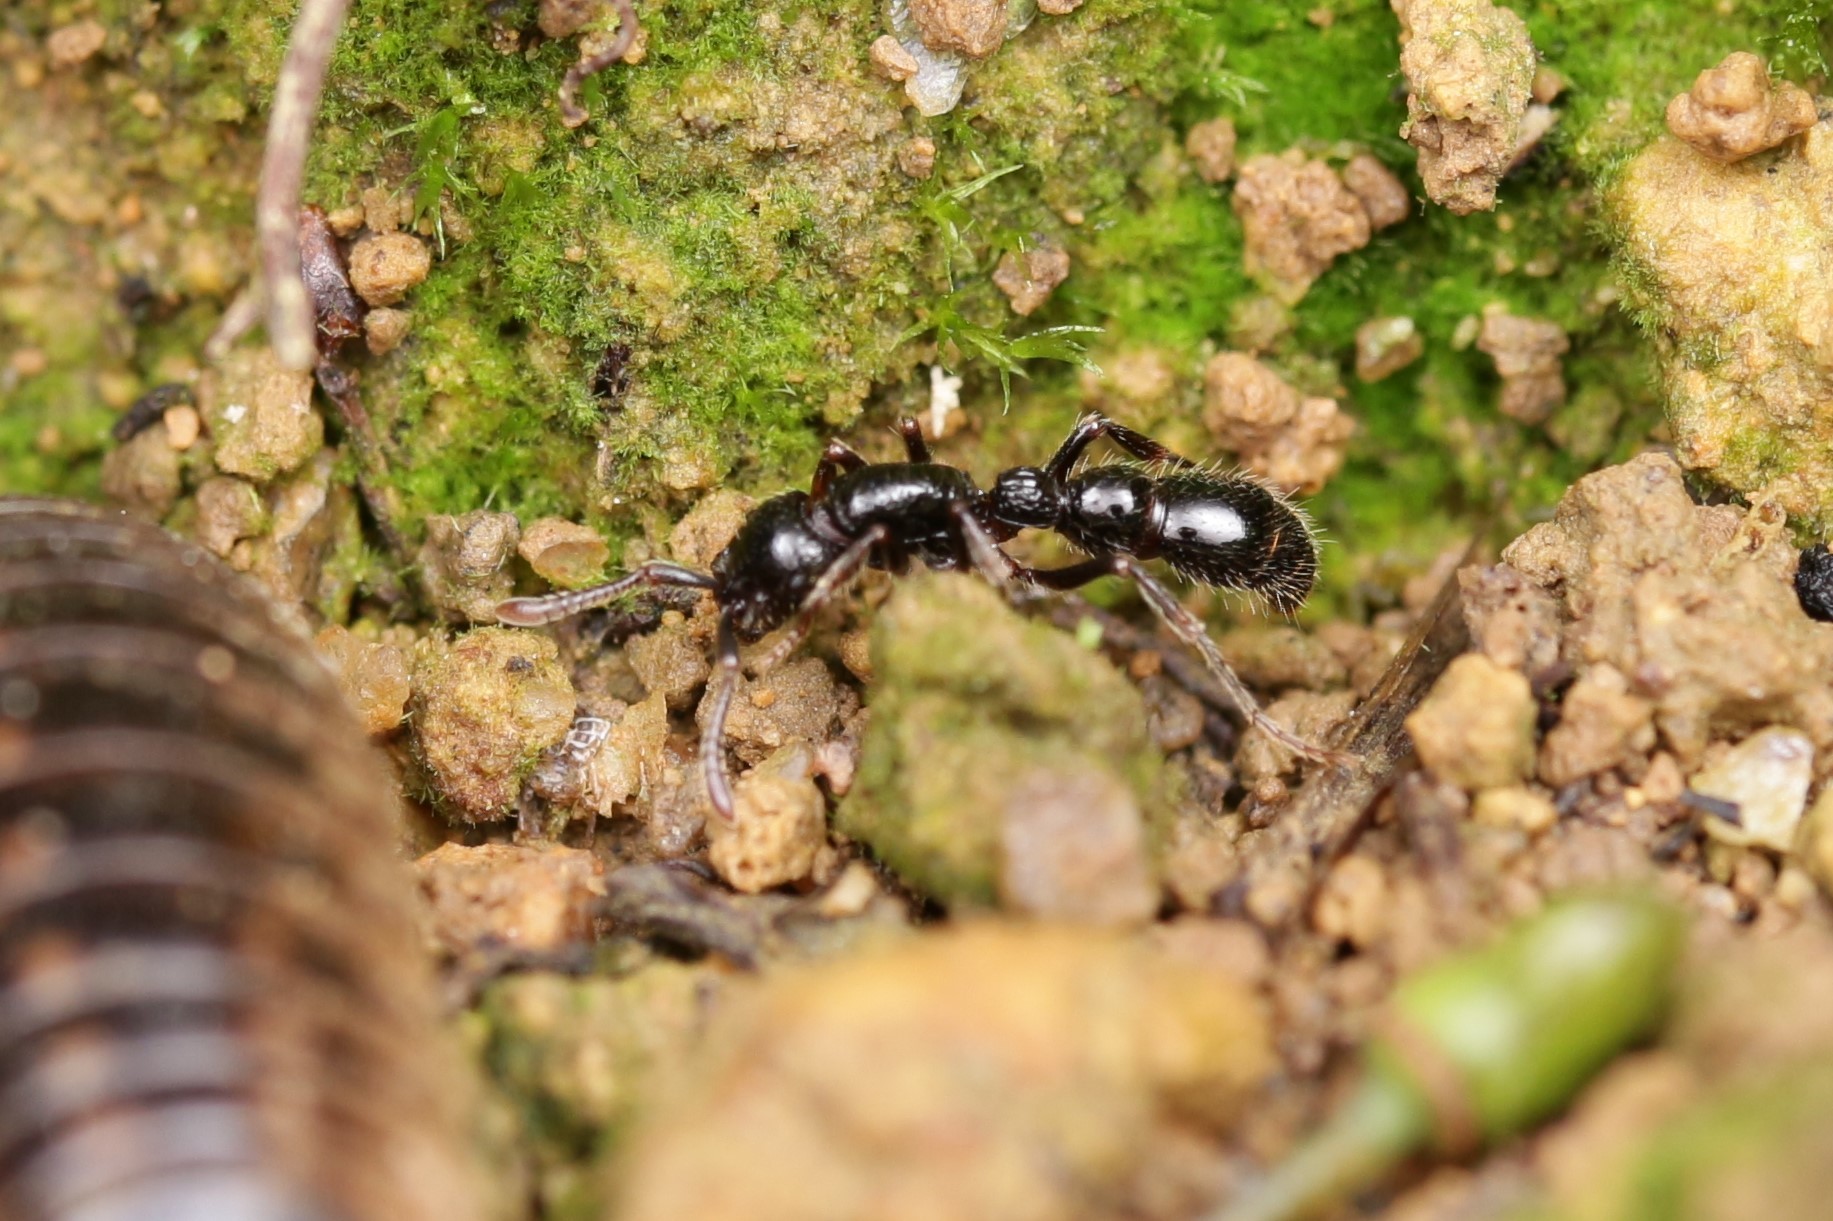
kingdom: Animalia
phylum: Arthropoda
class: Insecta
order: Hymenoptera
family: Formicidae
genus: Cerapachys
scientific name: Cerapachys sulcinodis
